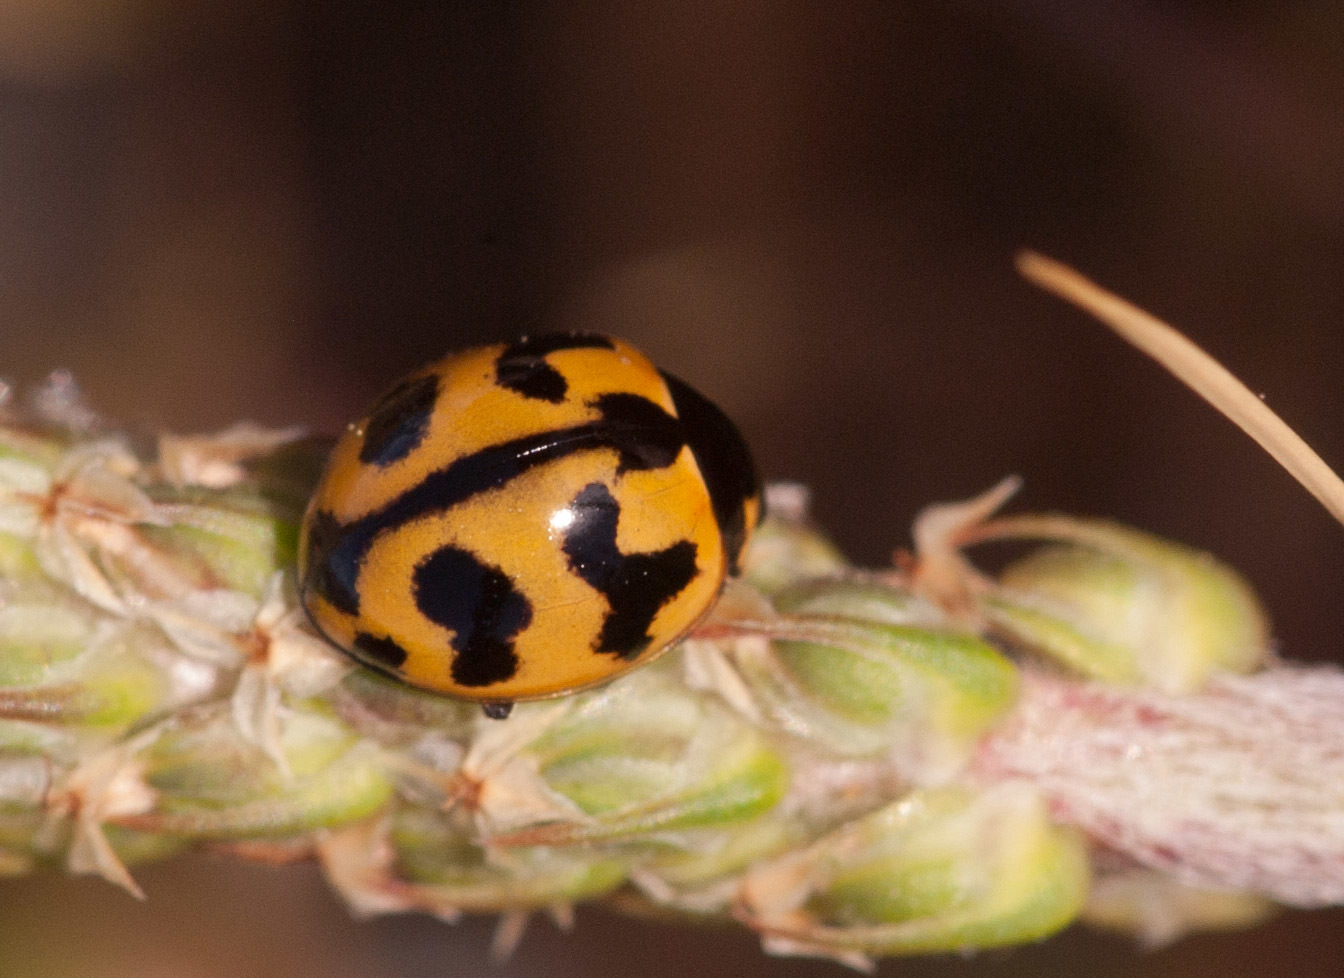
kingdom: Animalia
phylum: Arthropoda
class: Insecta
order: Coleoptera
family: Coccinellidae
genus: Coccinella
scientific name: Coccinella transversalis
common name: Transverse lady beetle
